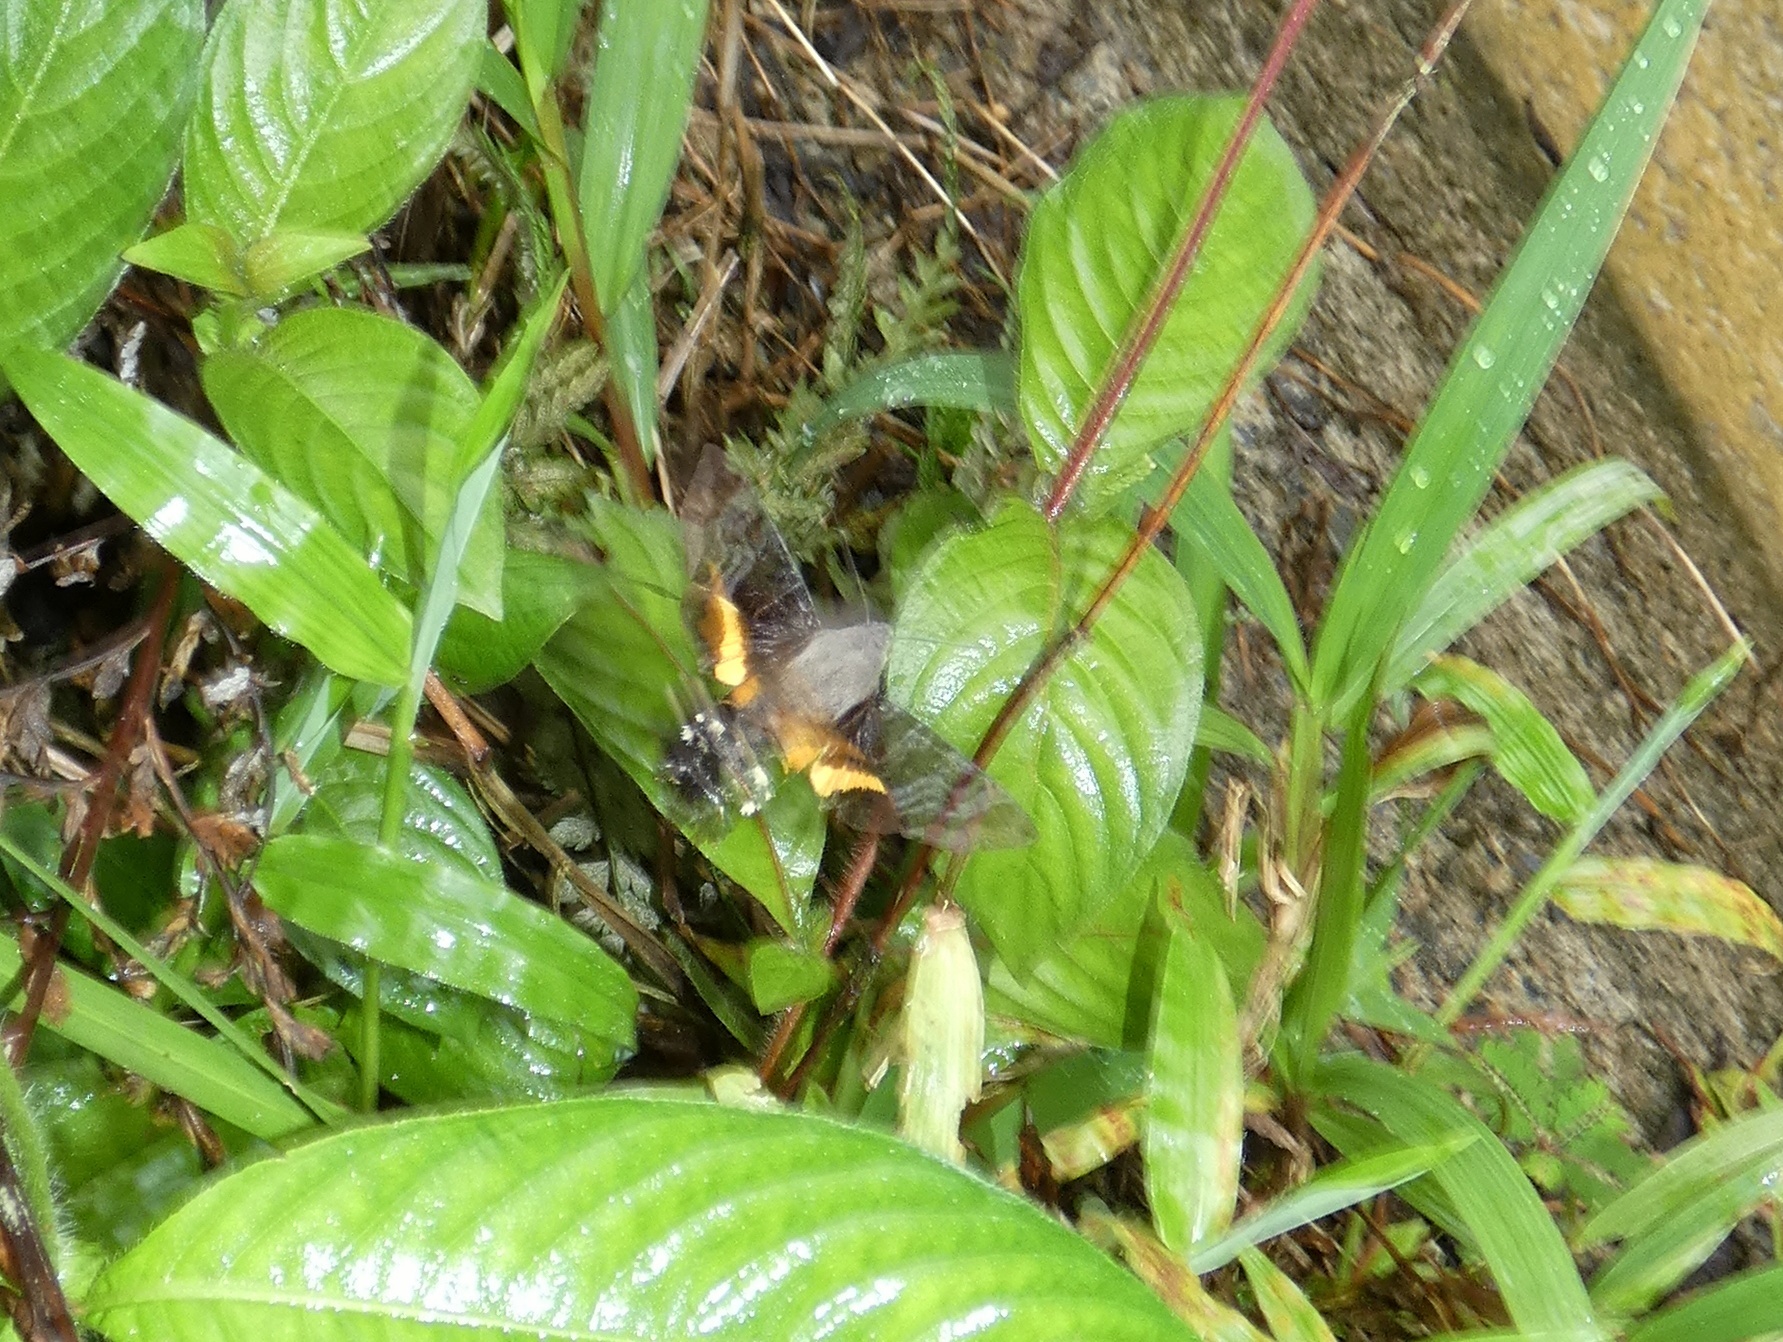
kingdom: Animalia
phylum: Arthropoda
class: Insecta
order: Lepidoptera
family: Sphingidae
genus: Aellopos
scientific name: Aellopos ceculus
